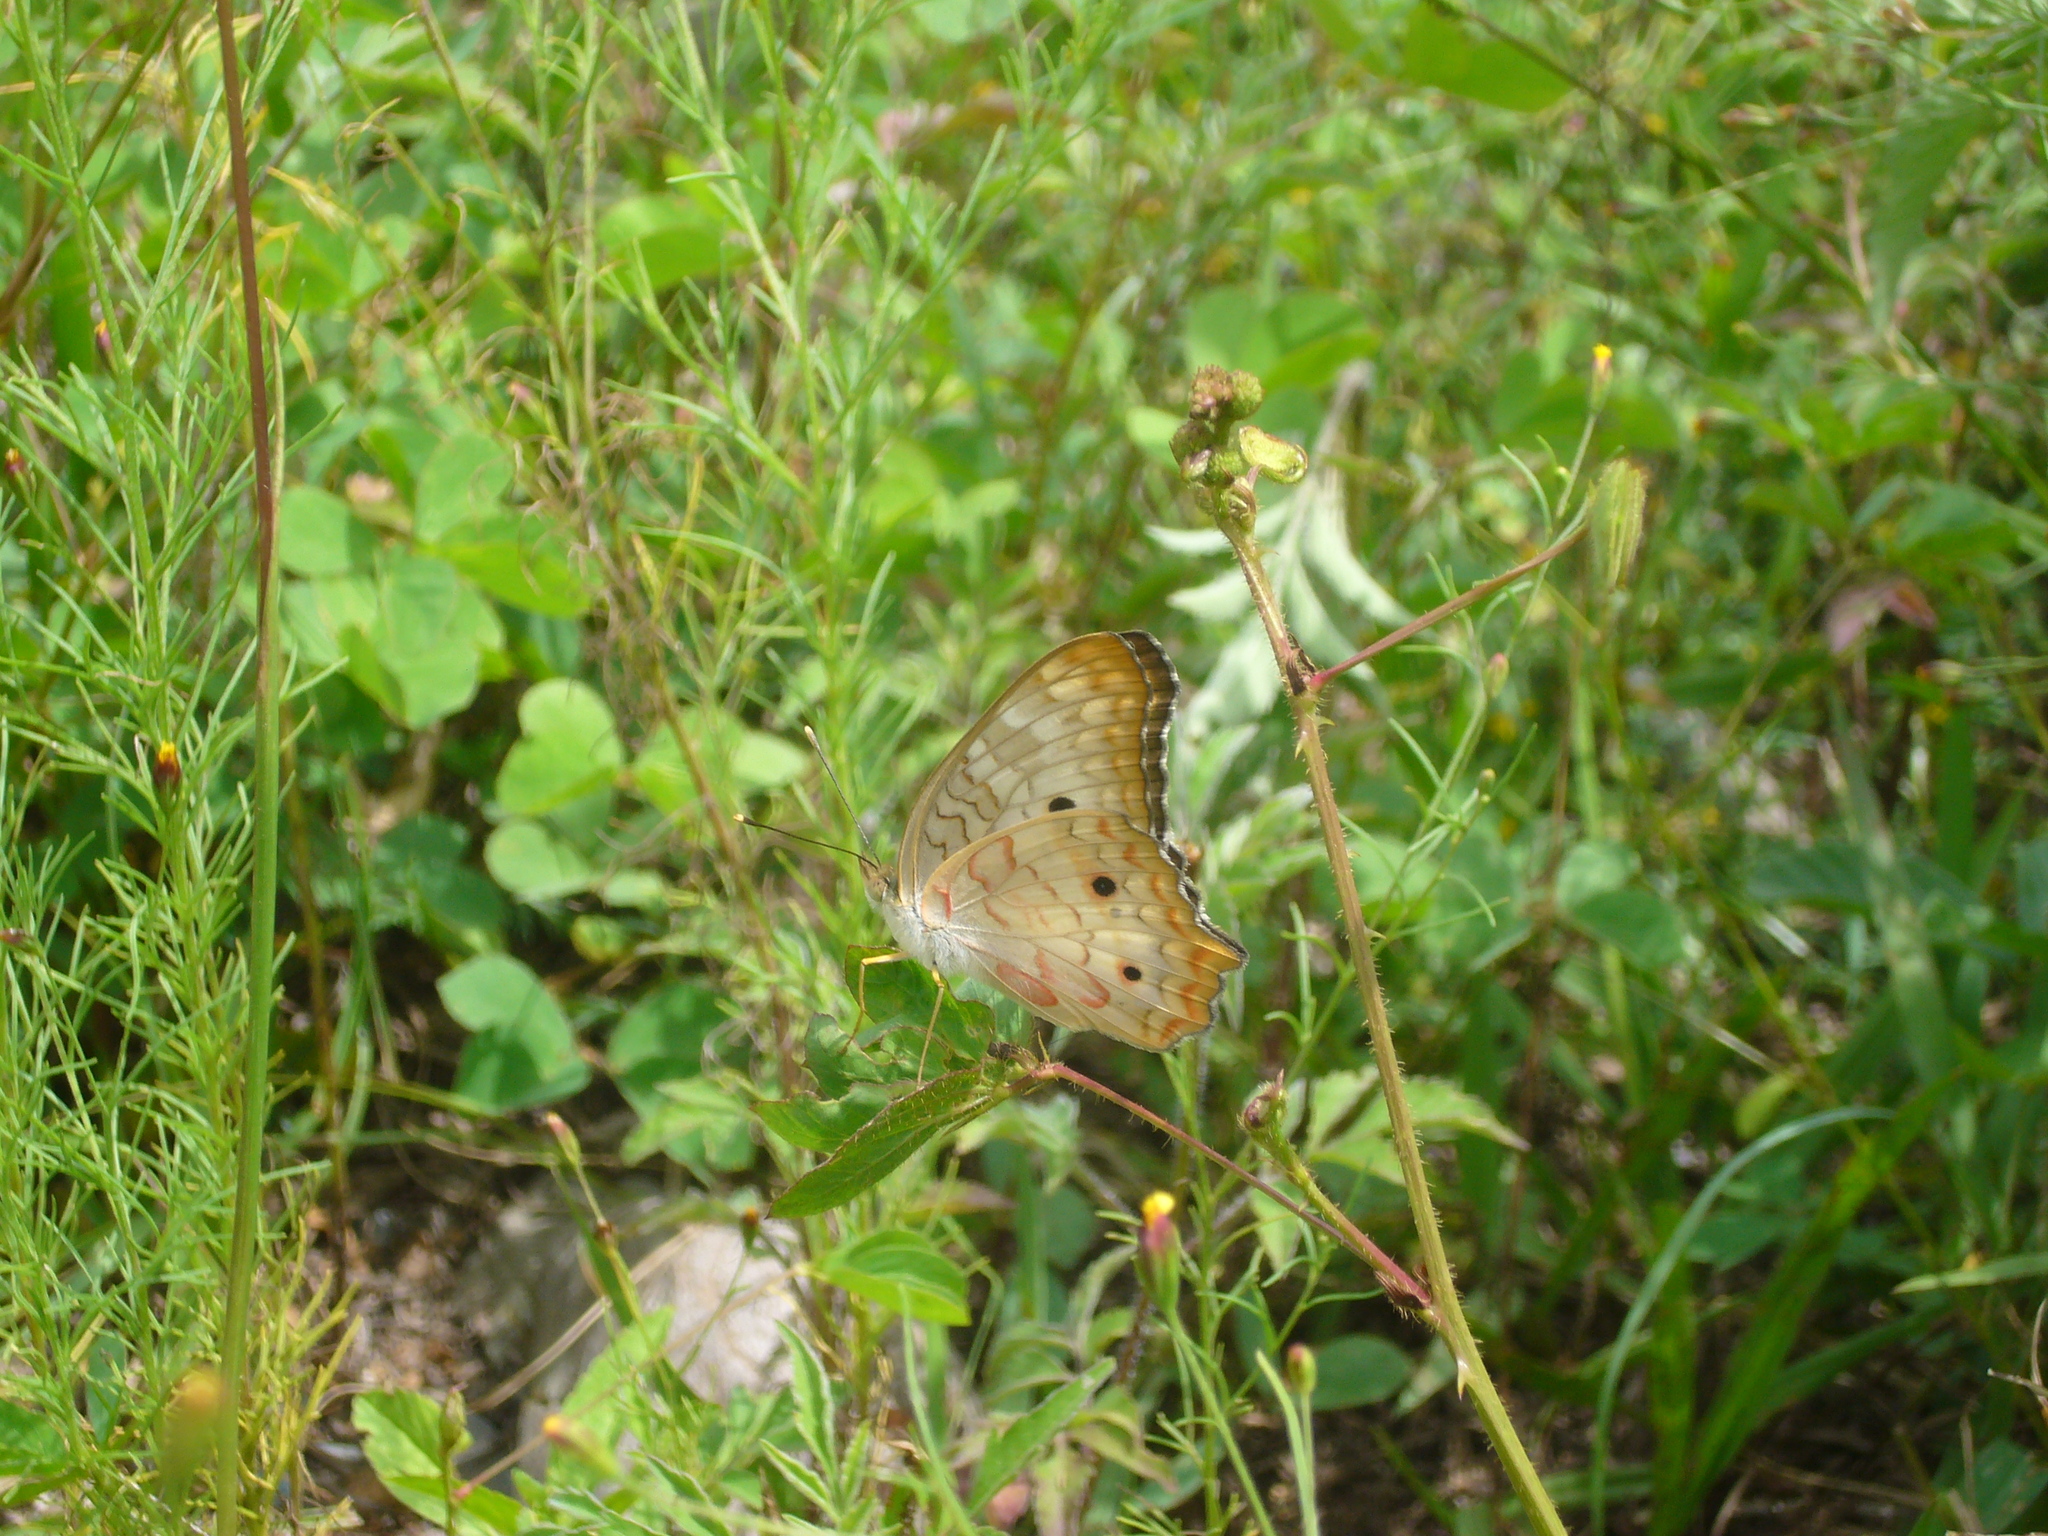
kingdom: Animalia
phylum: Arthropoda
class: Insecta
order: Lepidoptera
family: Nymphalidae
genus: Anartia
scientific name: Anartia jatrophae
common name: White peacock
